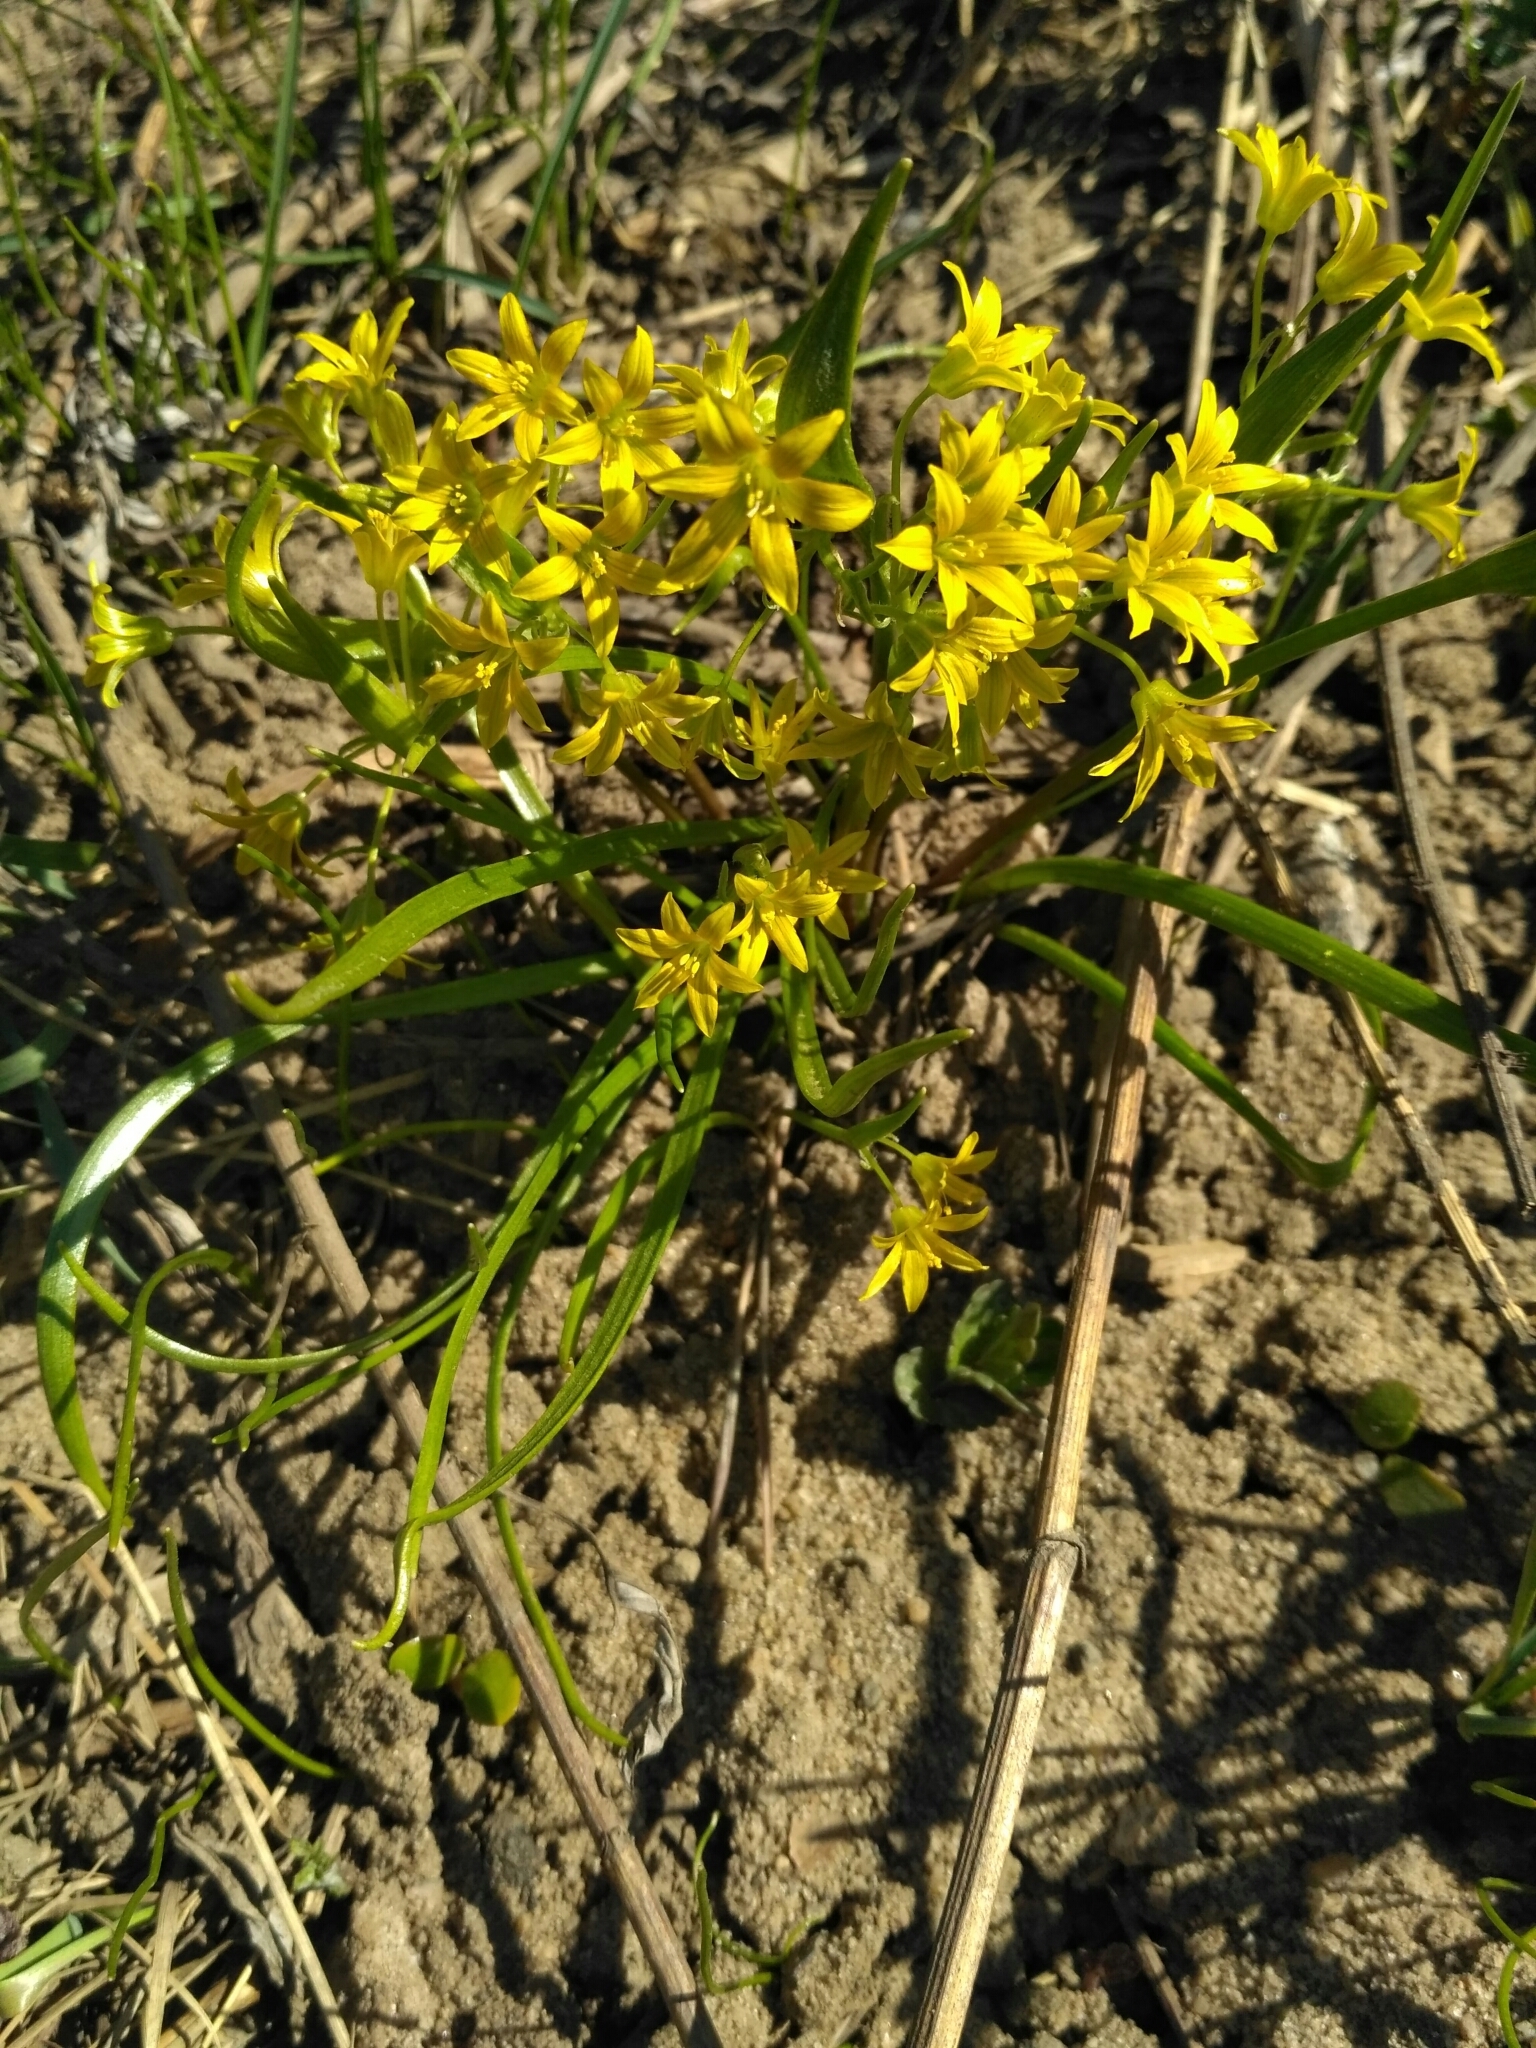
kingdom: Plantae
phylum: Tracheophyta
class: Liliopsida
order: Liliales
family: Liliaceae
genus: Gagea
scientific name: Gagea minima
